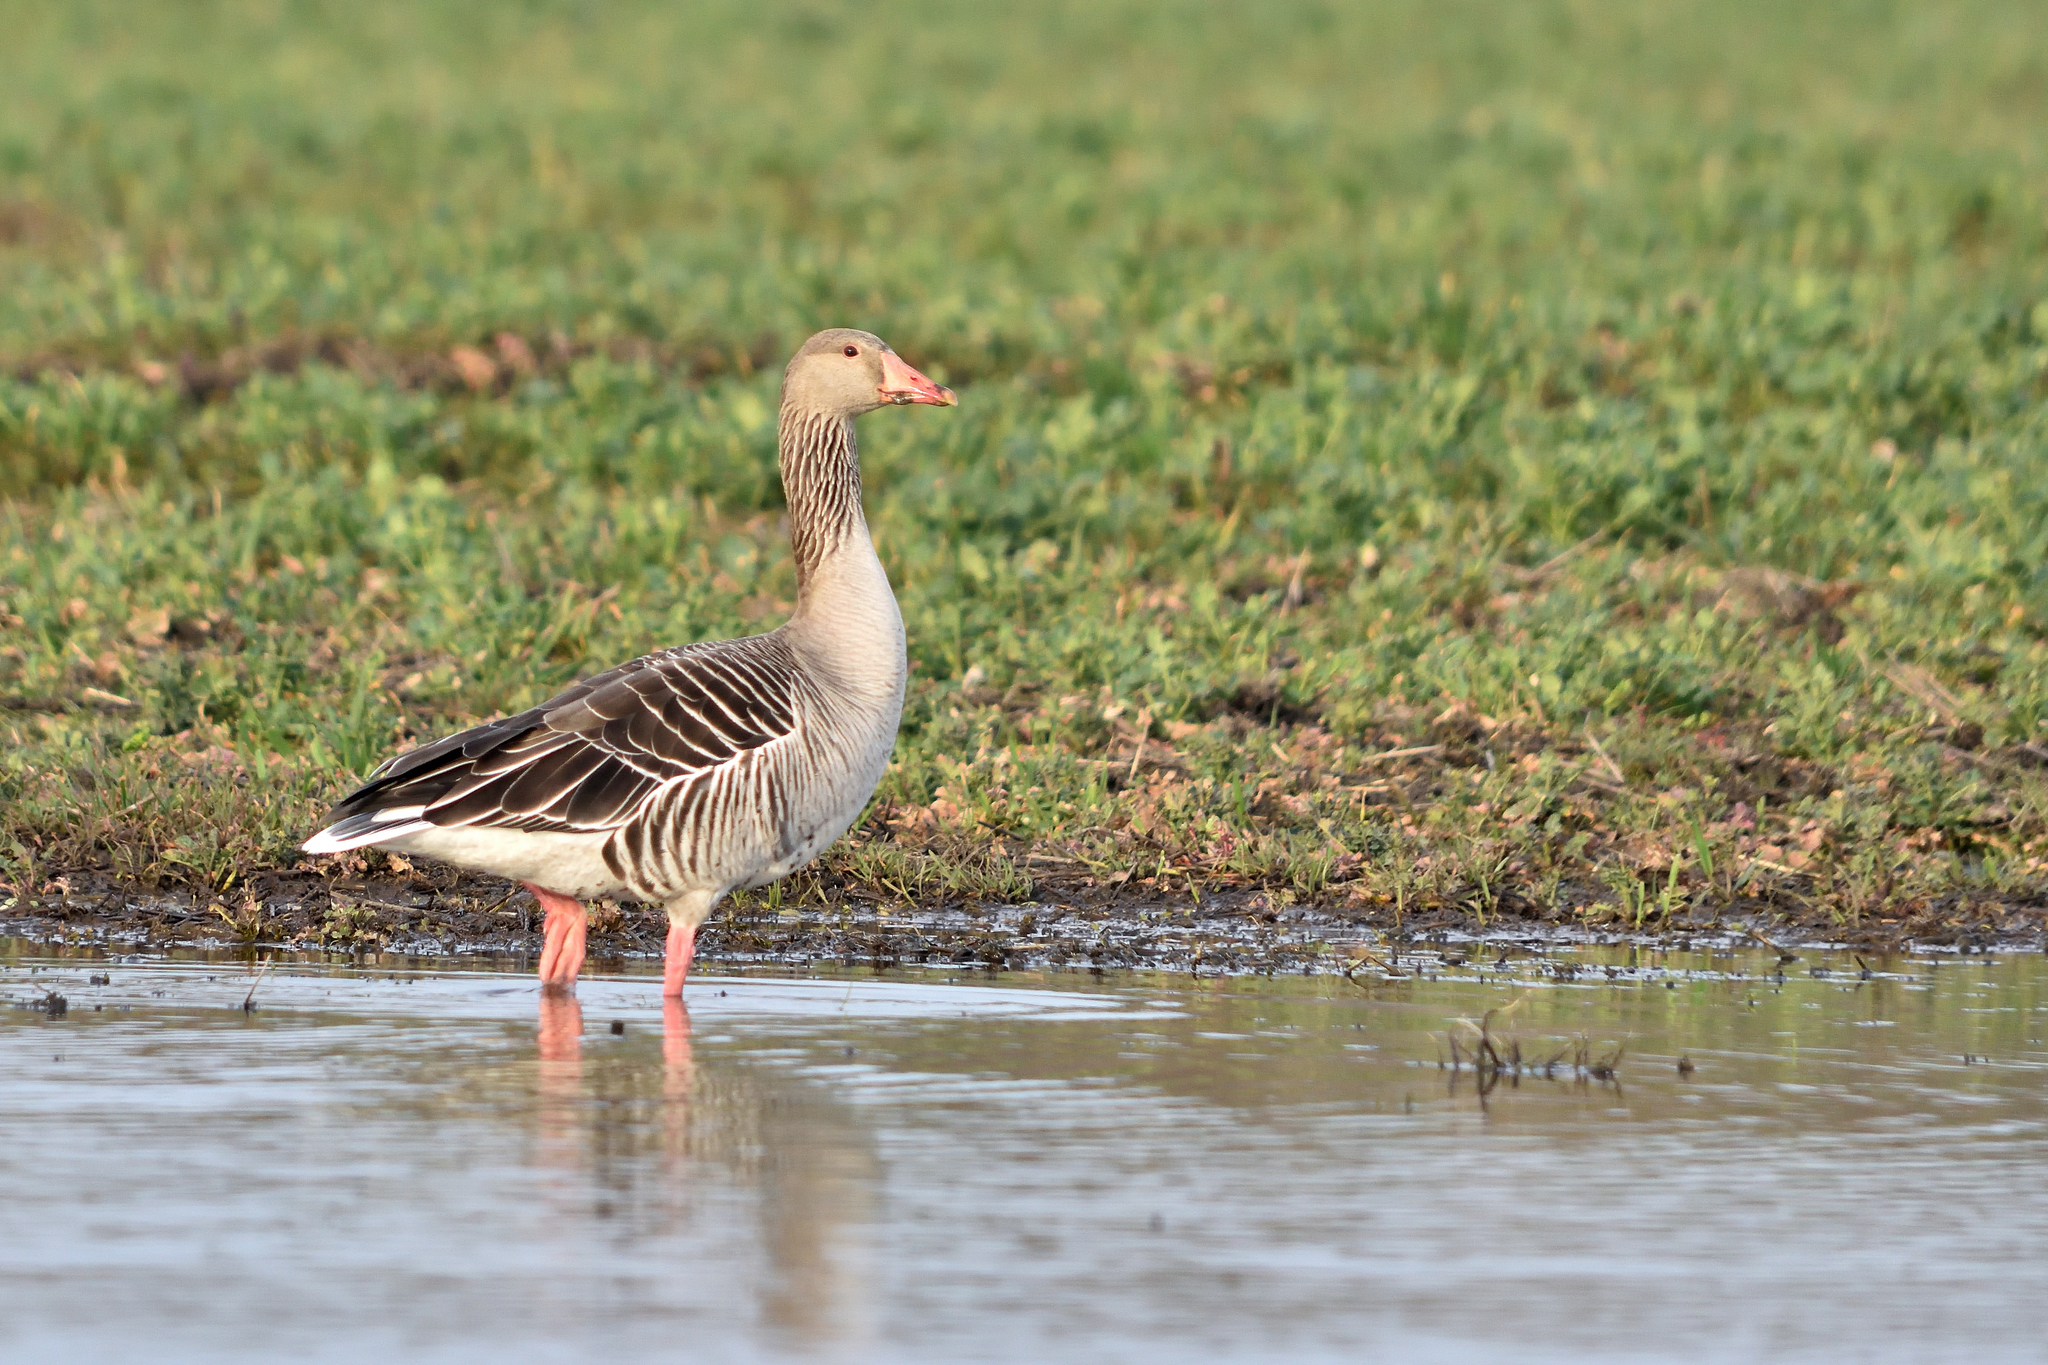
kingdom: Animalia
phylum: Chordata
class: Aves
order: Anseriformes
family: Anatidae
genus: Anser
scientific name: Anser anser
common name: Greylag goose
